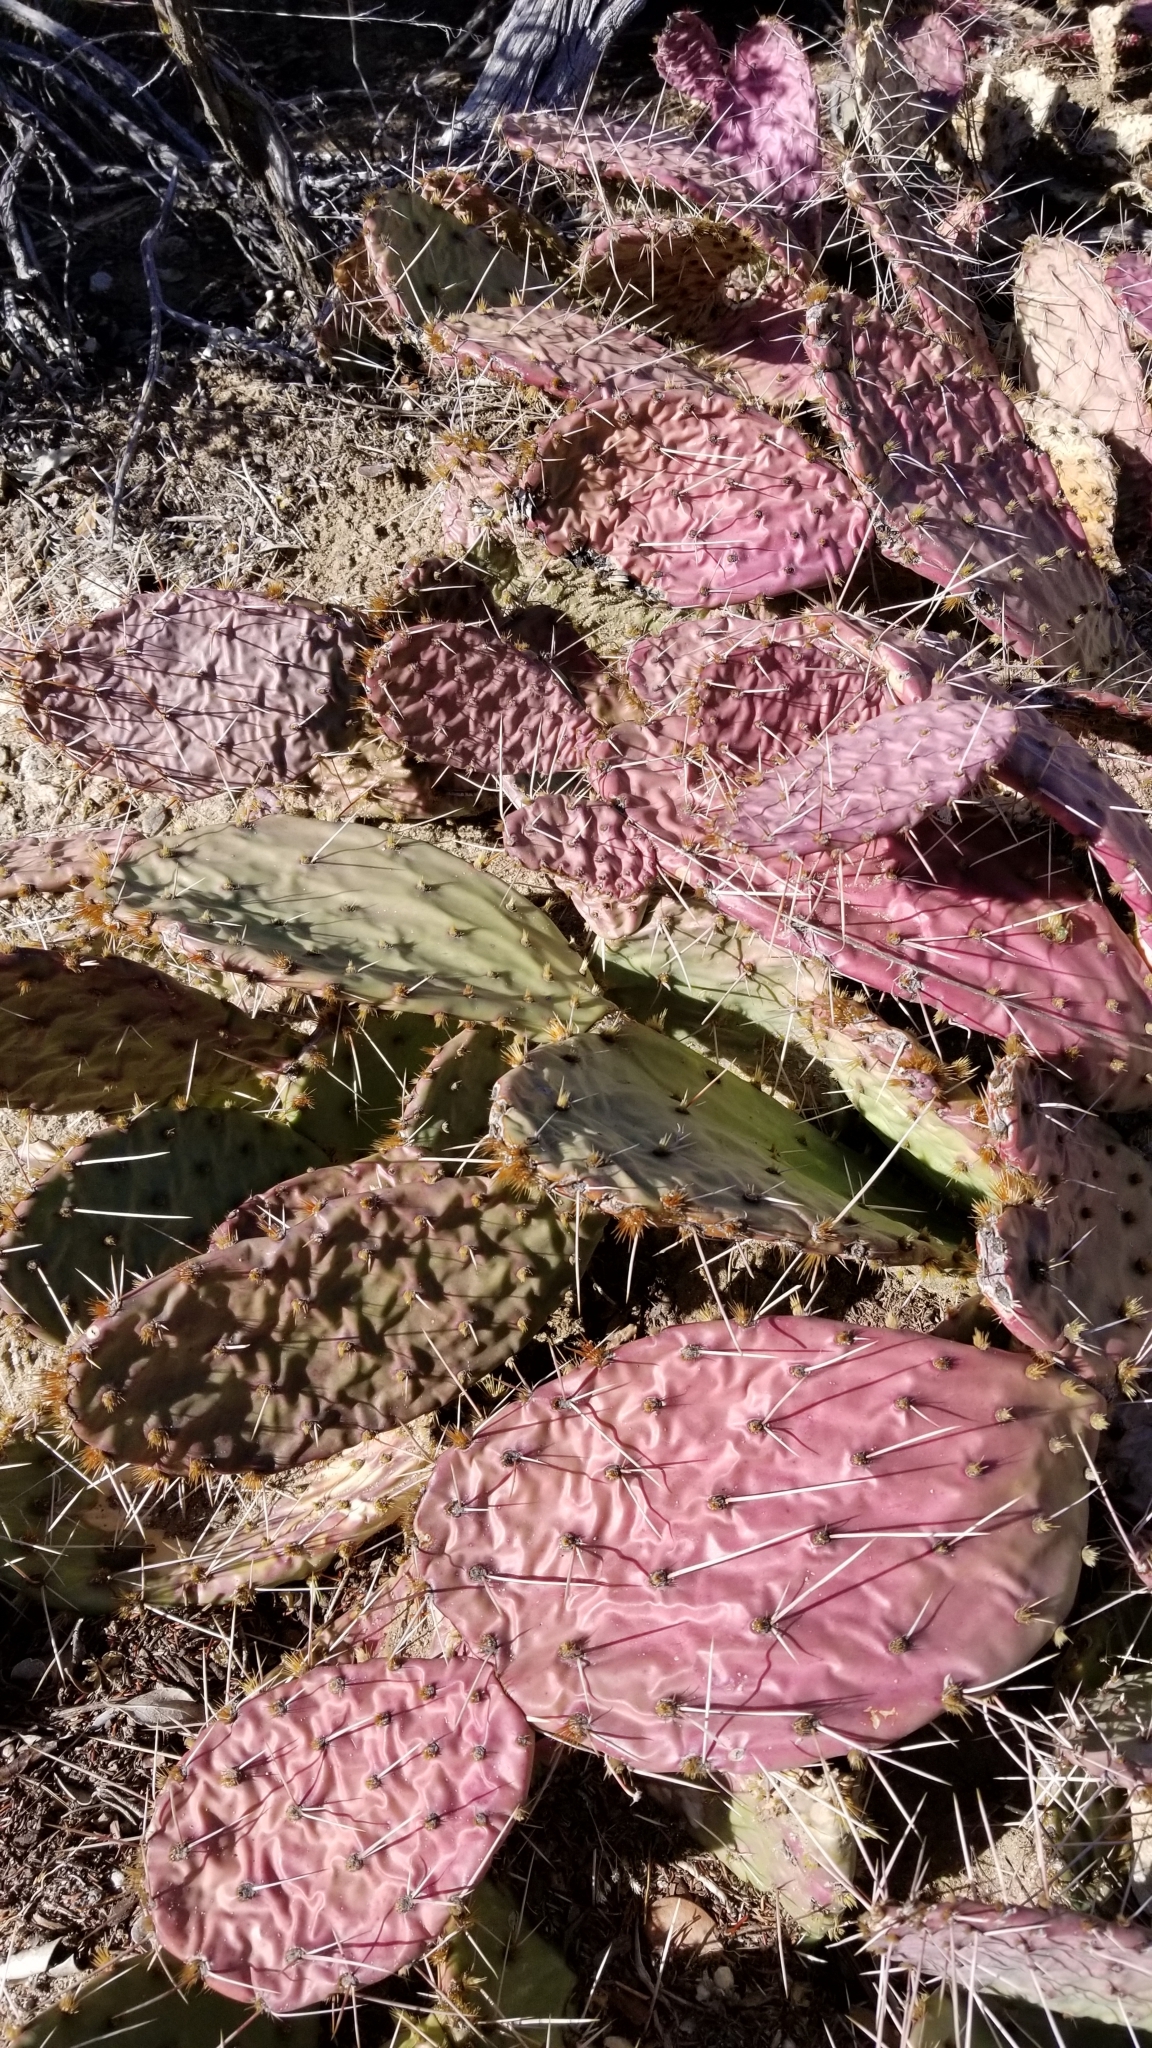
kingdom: Plantae
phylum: Tracheophyta
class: Magnoliopsida
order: Caryophyllales
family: Cactaceae
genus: Opuntia
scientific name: Opuntia phaeacantha
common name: New mexico prickly-pear
